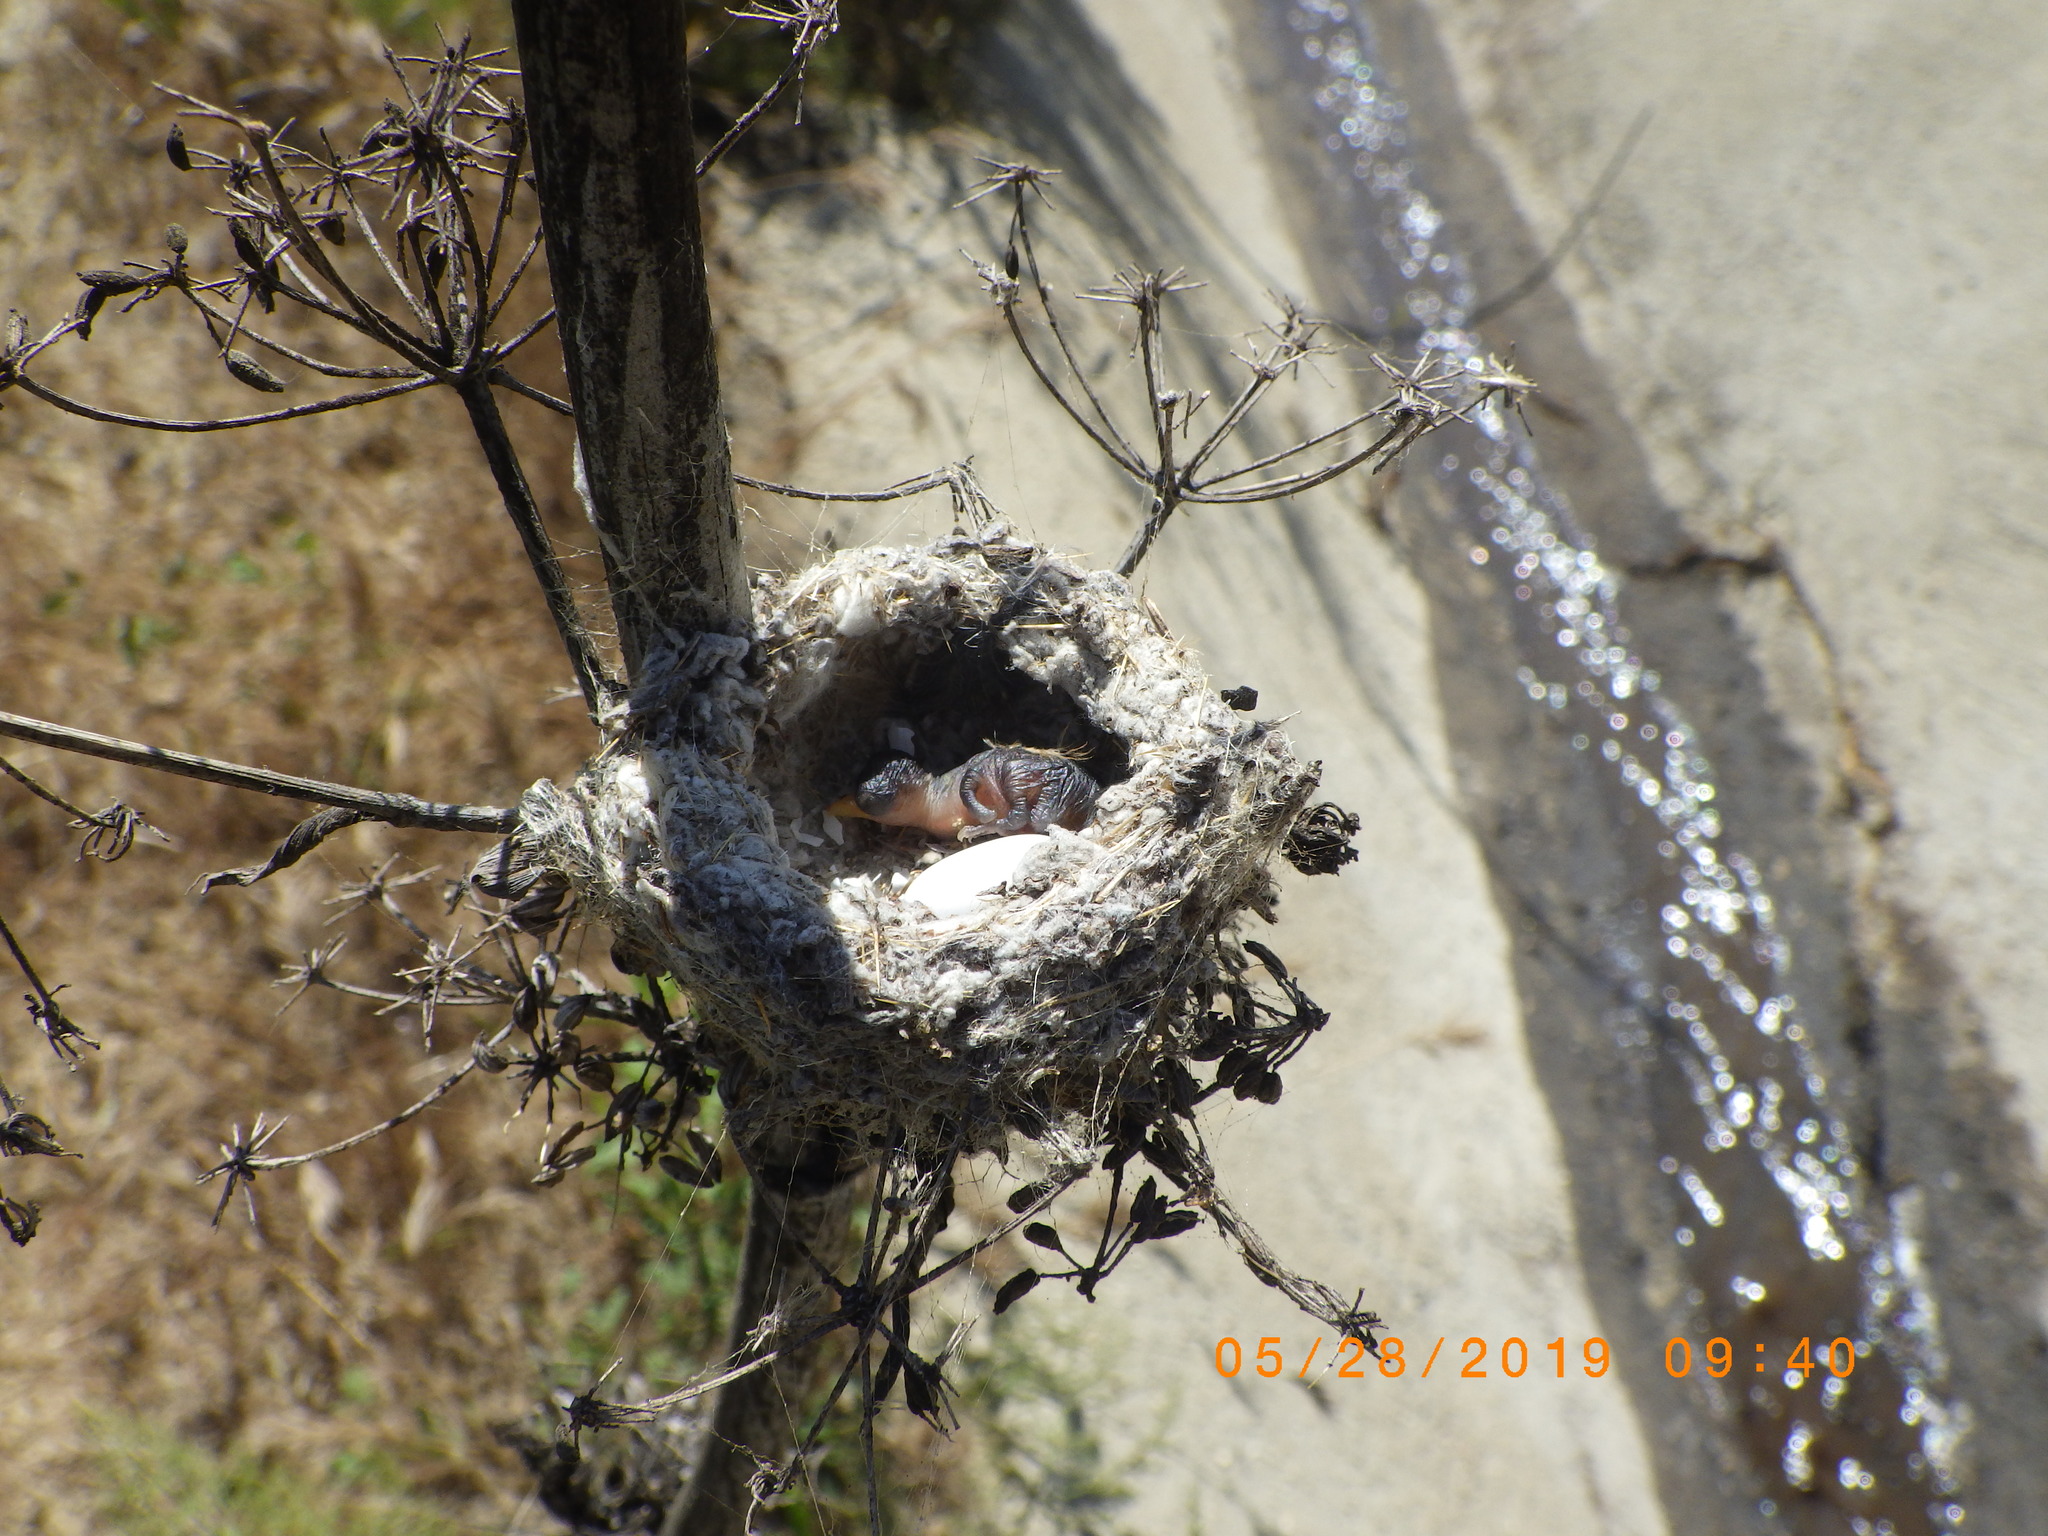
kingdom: Animalia
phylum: Chordata
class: Aves
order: Apodiformes
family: Trochilidae
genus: Calypte
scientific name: Calypte anna
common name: Anna's hummingbird
